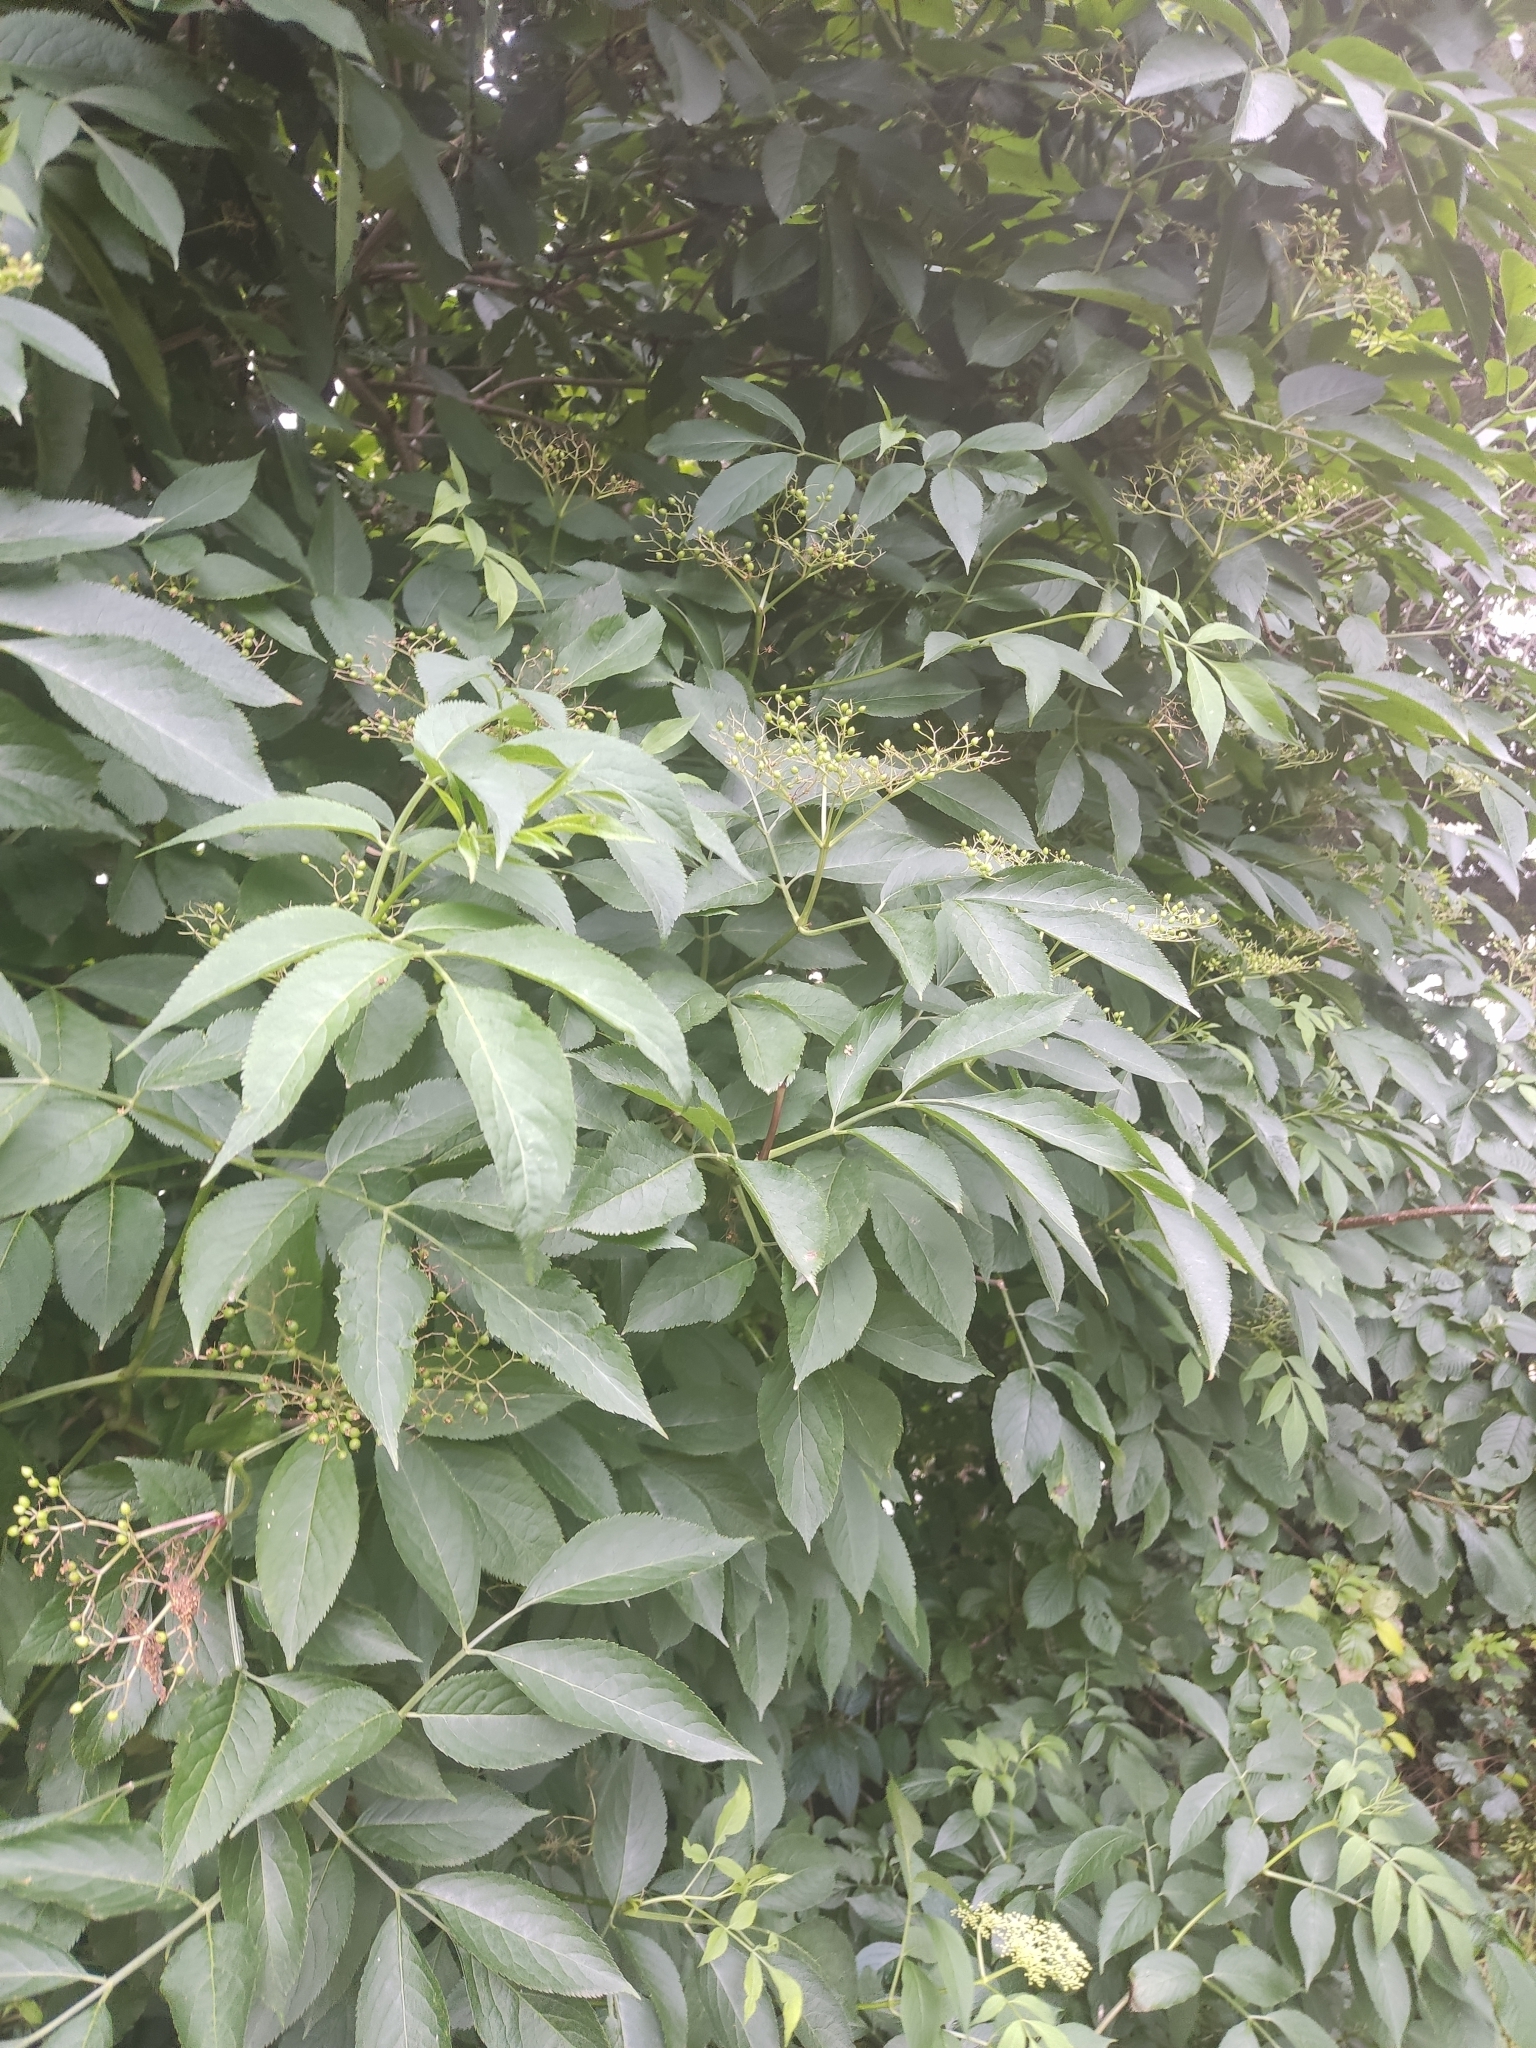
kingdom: Plantae
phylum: Tracheophyta
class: Magnoliopsida
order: Dipsacales
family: Viburnaceae
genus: Sambucus
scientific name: Sambucus nigra
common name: Elder
